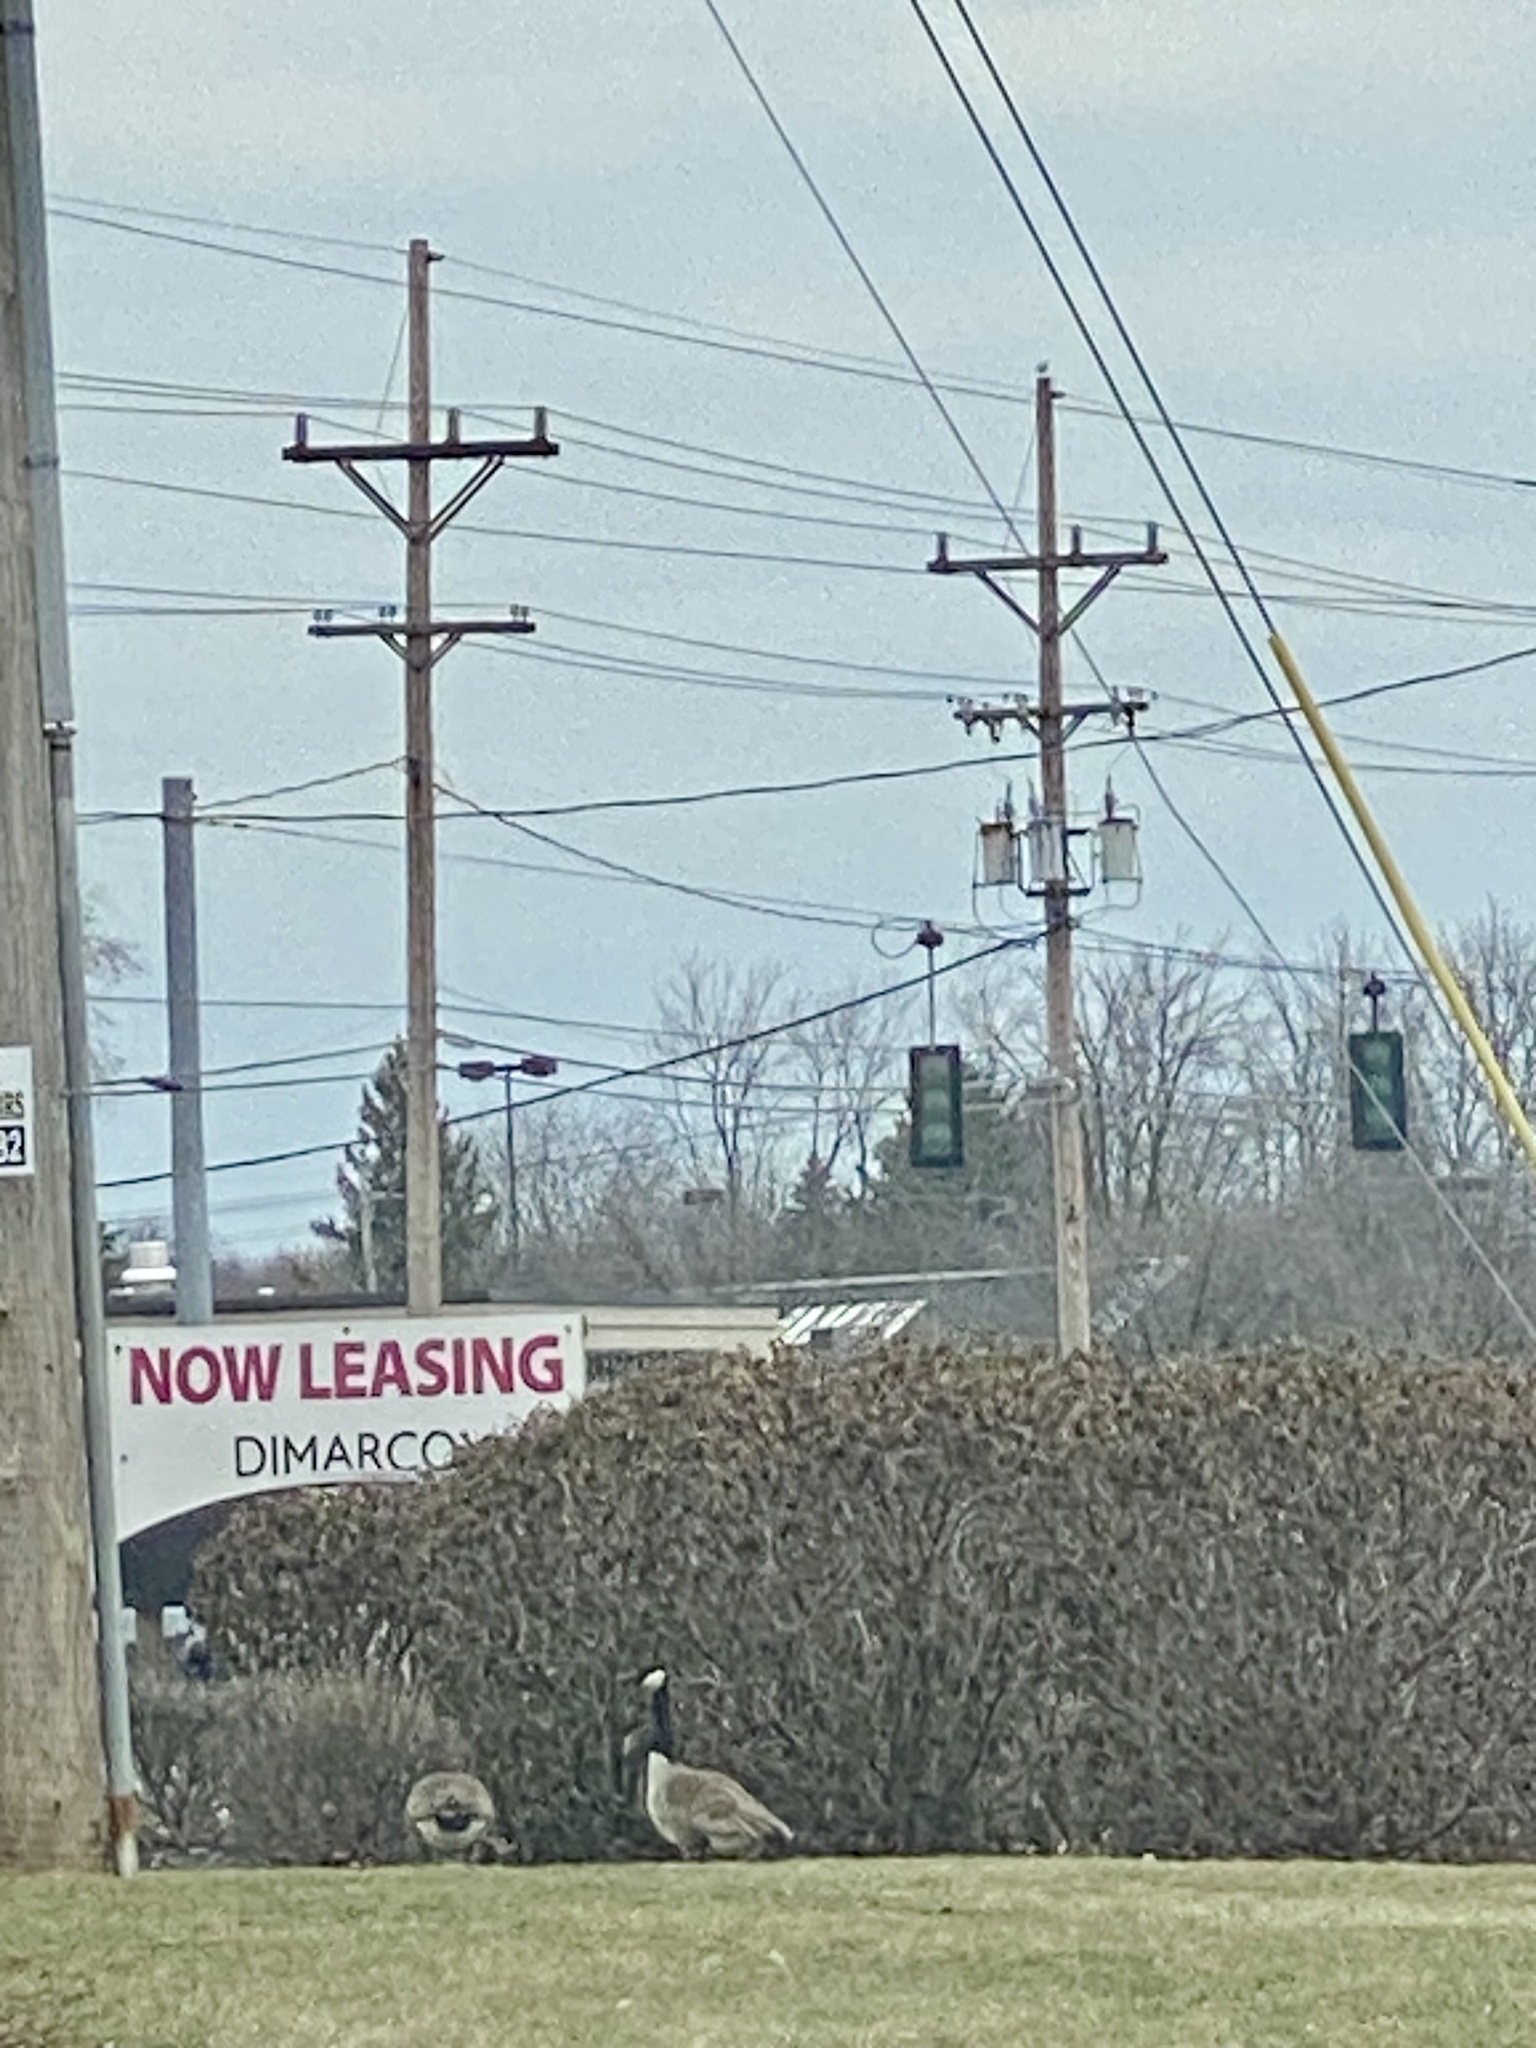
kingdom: Animalia
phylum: Chordata
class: Aves
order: Anseriformes
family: Anatidae
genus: Branta
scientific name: Branta canadensis
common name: Canada goose
